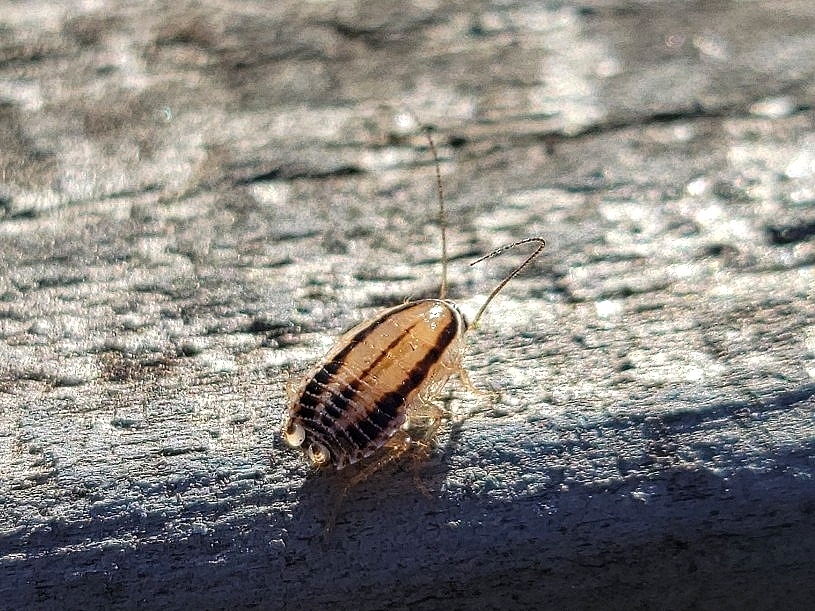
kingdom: Animalia
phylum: Arthropoda
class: Insecta
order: Blattodea
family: Ectobiidae
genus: Luridiblatta
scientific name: Luridiblatta trivittata
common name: Three-lined cockroach
